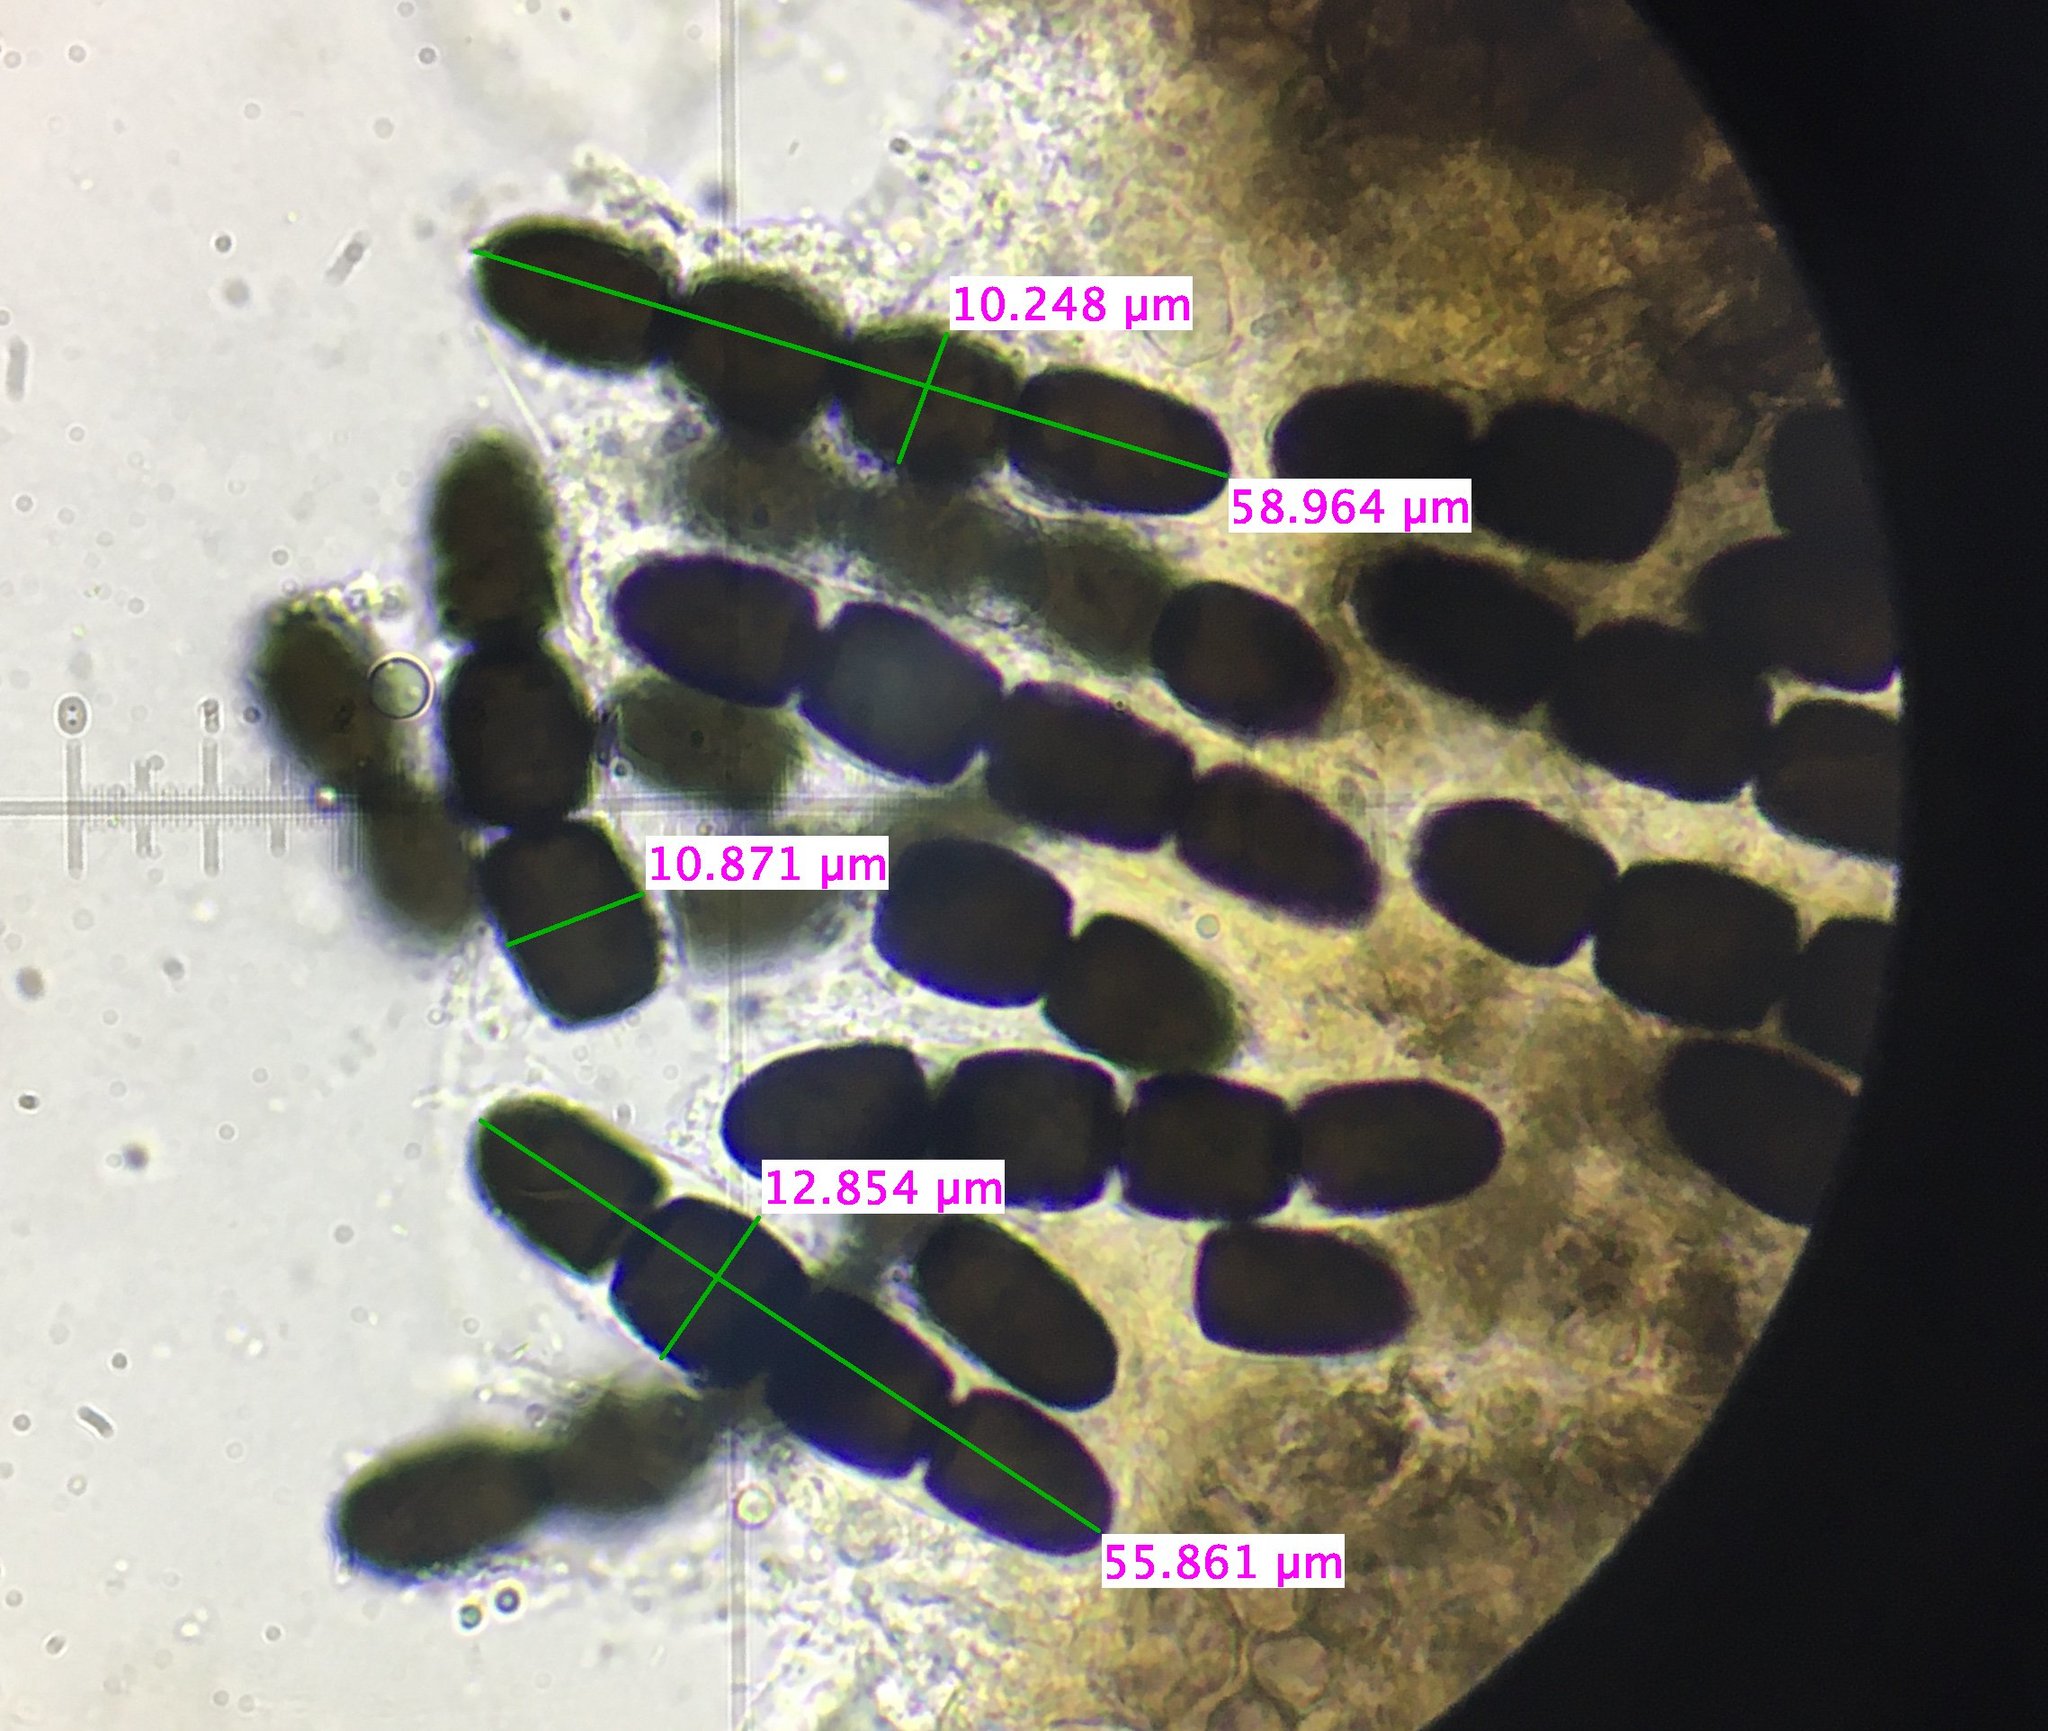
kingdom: Fungi
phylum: Ascomycota
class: Dothideomycetes
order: Pleosporales
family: Sporormiaceae
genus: Sporormiella
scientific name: Sporormiella grandispora
